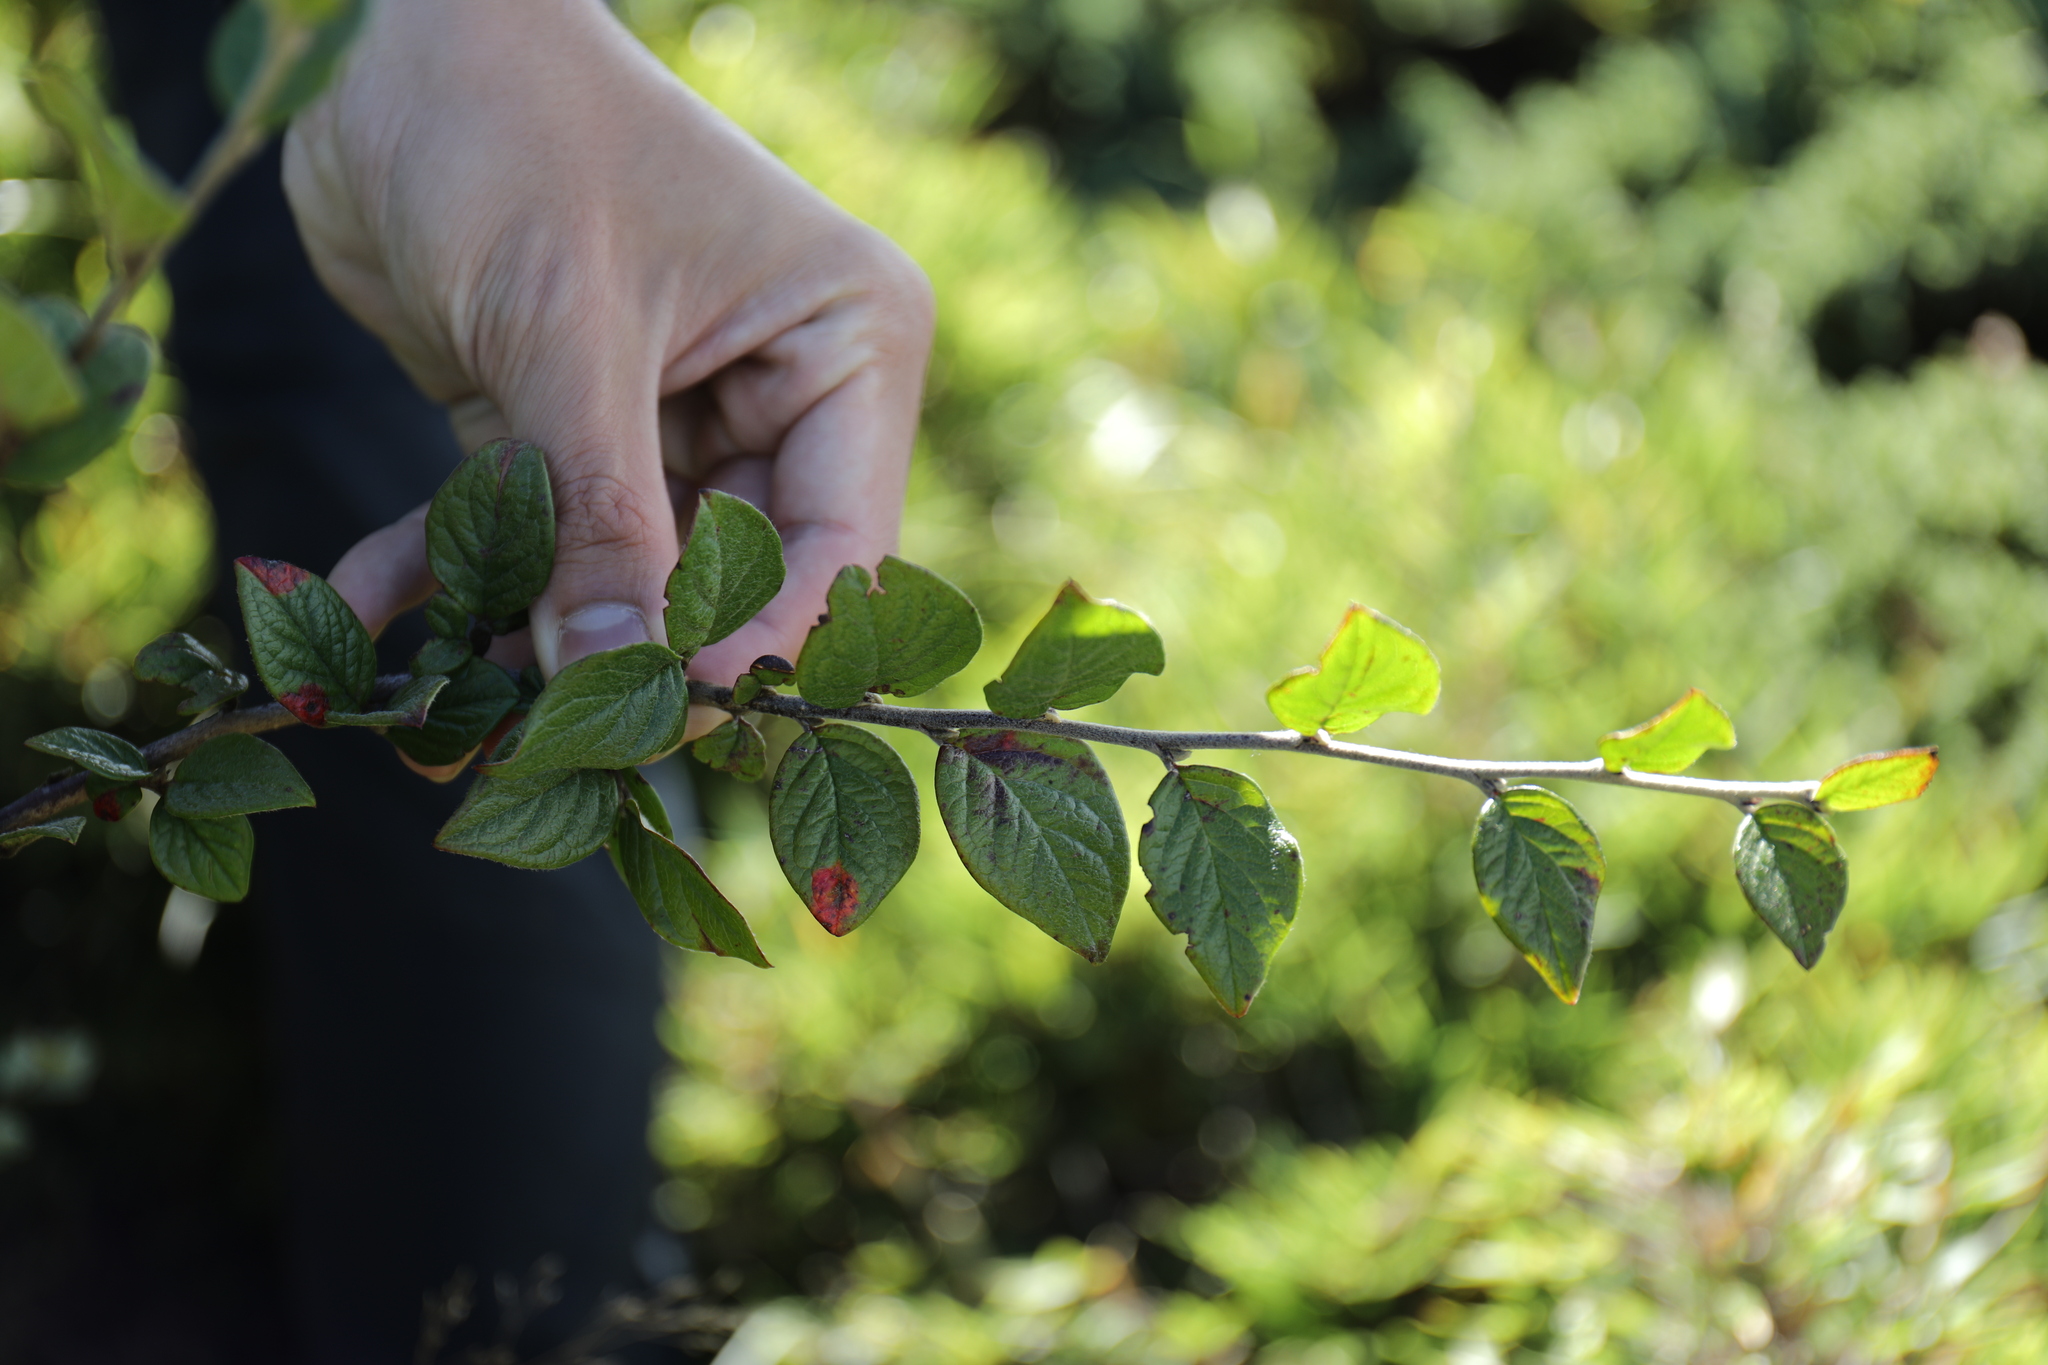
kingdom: Plantae
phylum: Tracheophyta
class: Magnoliopsida
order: Rosales
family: Rosaceae
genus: Cotoneaster
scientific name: Cotoneaster konishii
